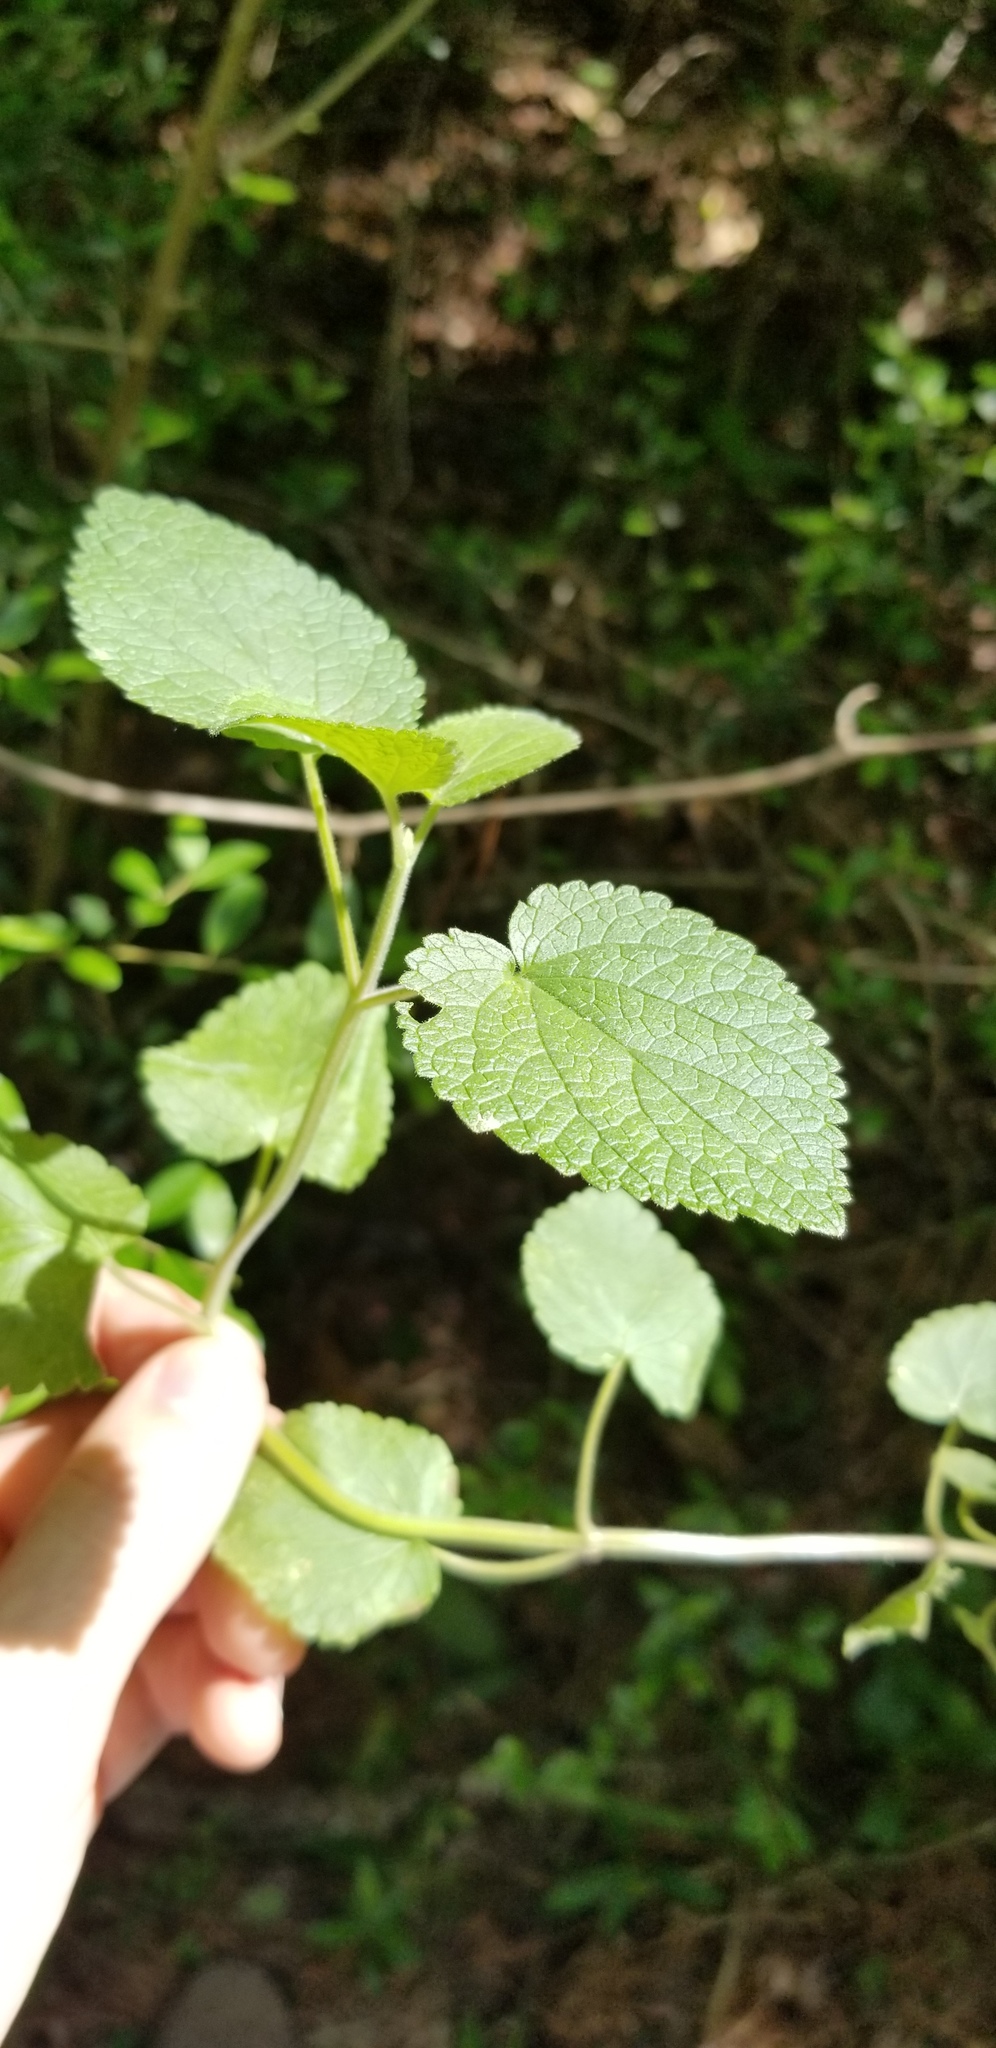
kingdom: Plantae
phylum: Tracheophyta
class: Magnoliopsida
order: Lamiales
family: Lamiaceae
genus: Scutellaria
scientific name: Scutellaria ovata
